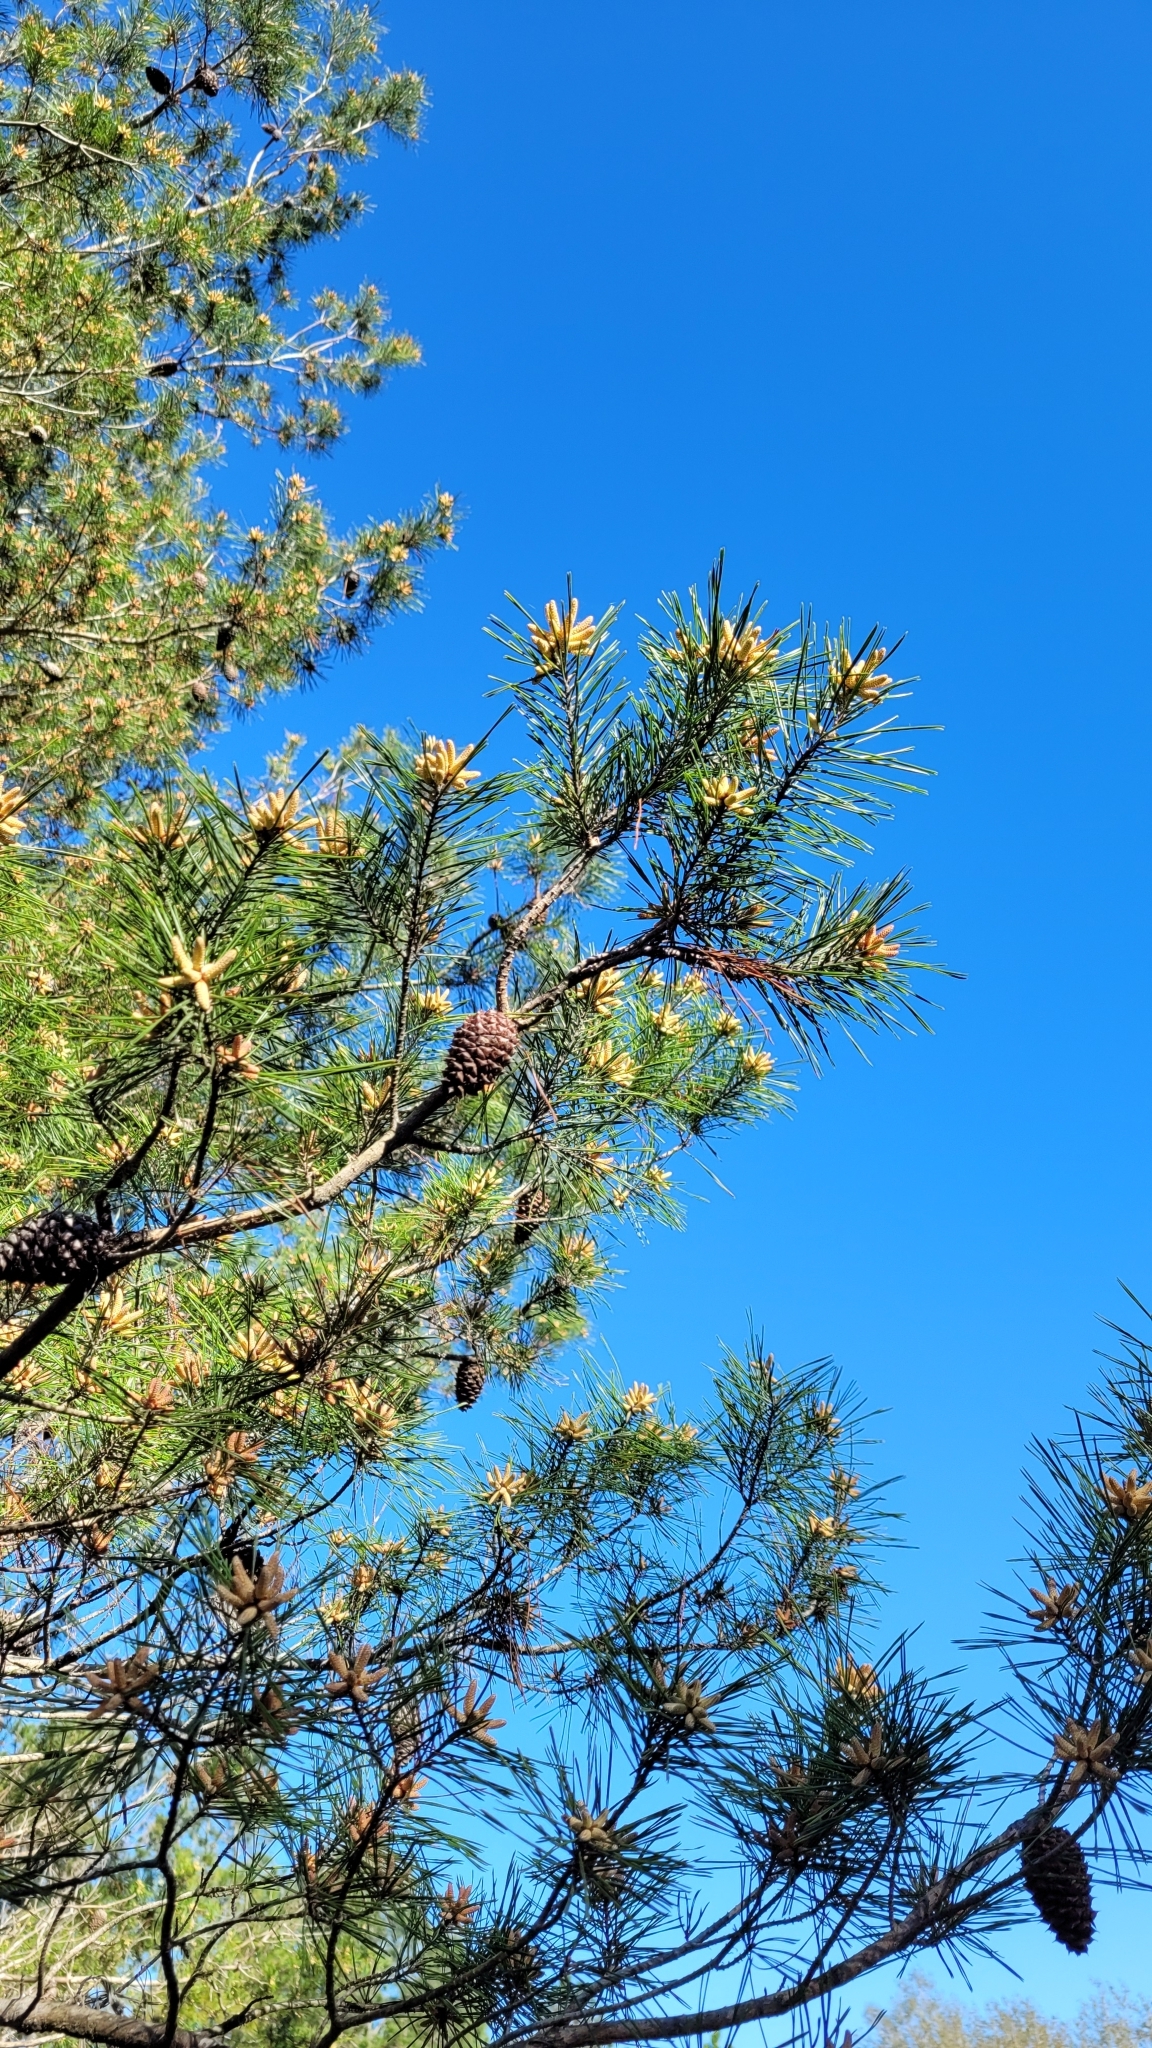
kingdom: Plantae
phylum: Tracheophyta
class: Pinopsida
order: Pinales
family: Pinaceae
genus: Pinus
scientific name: Pinus clausa
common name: Sand pine
